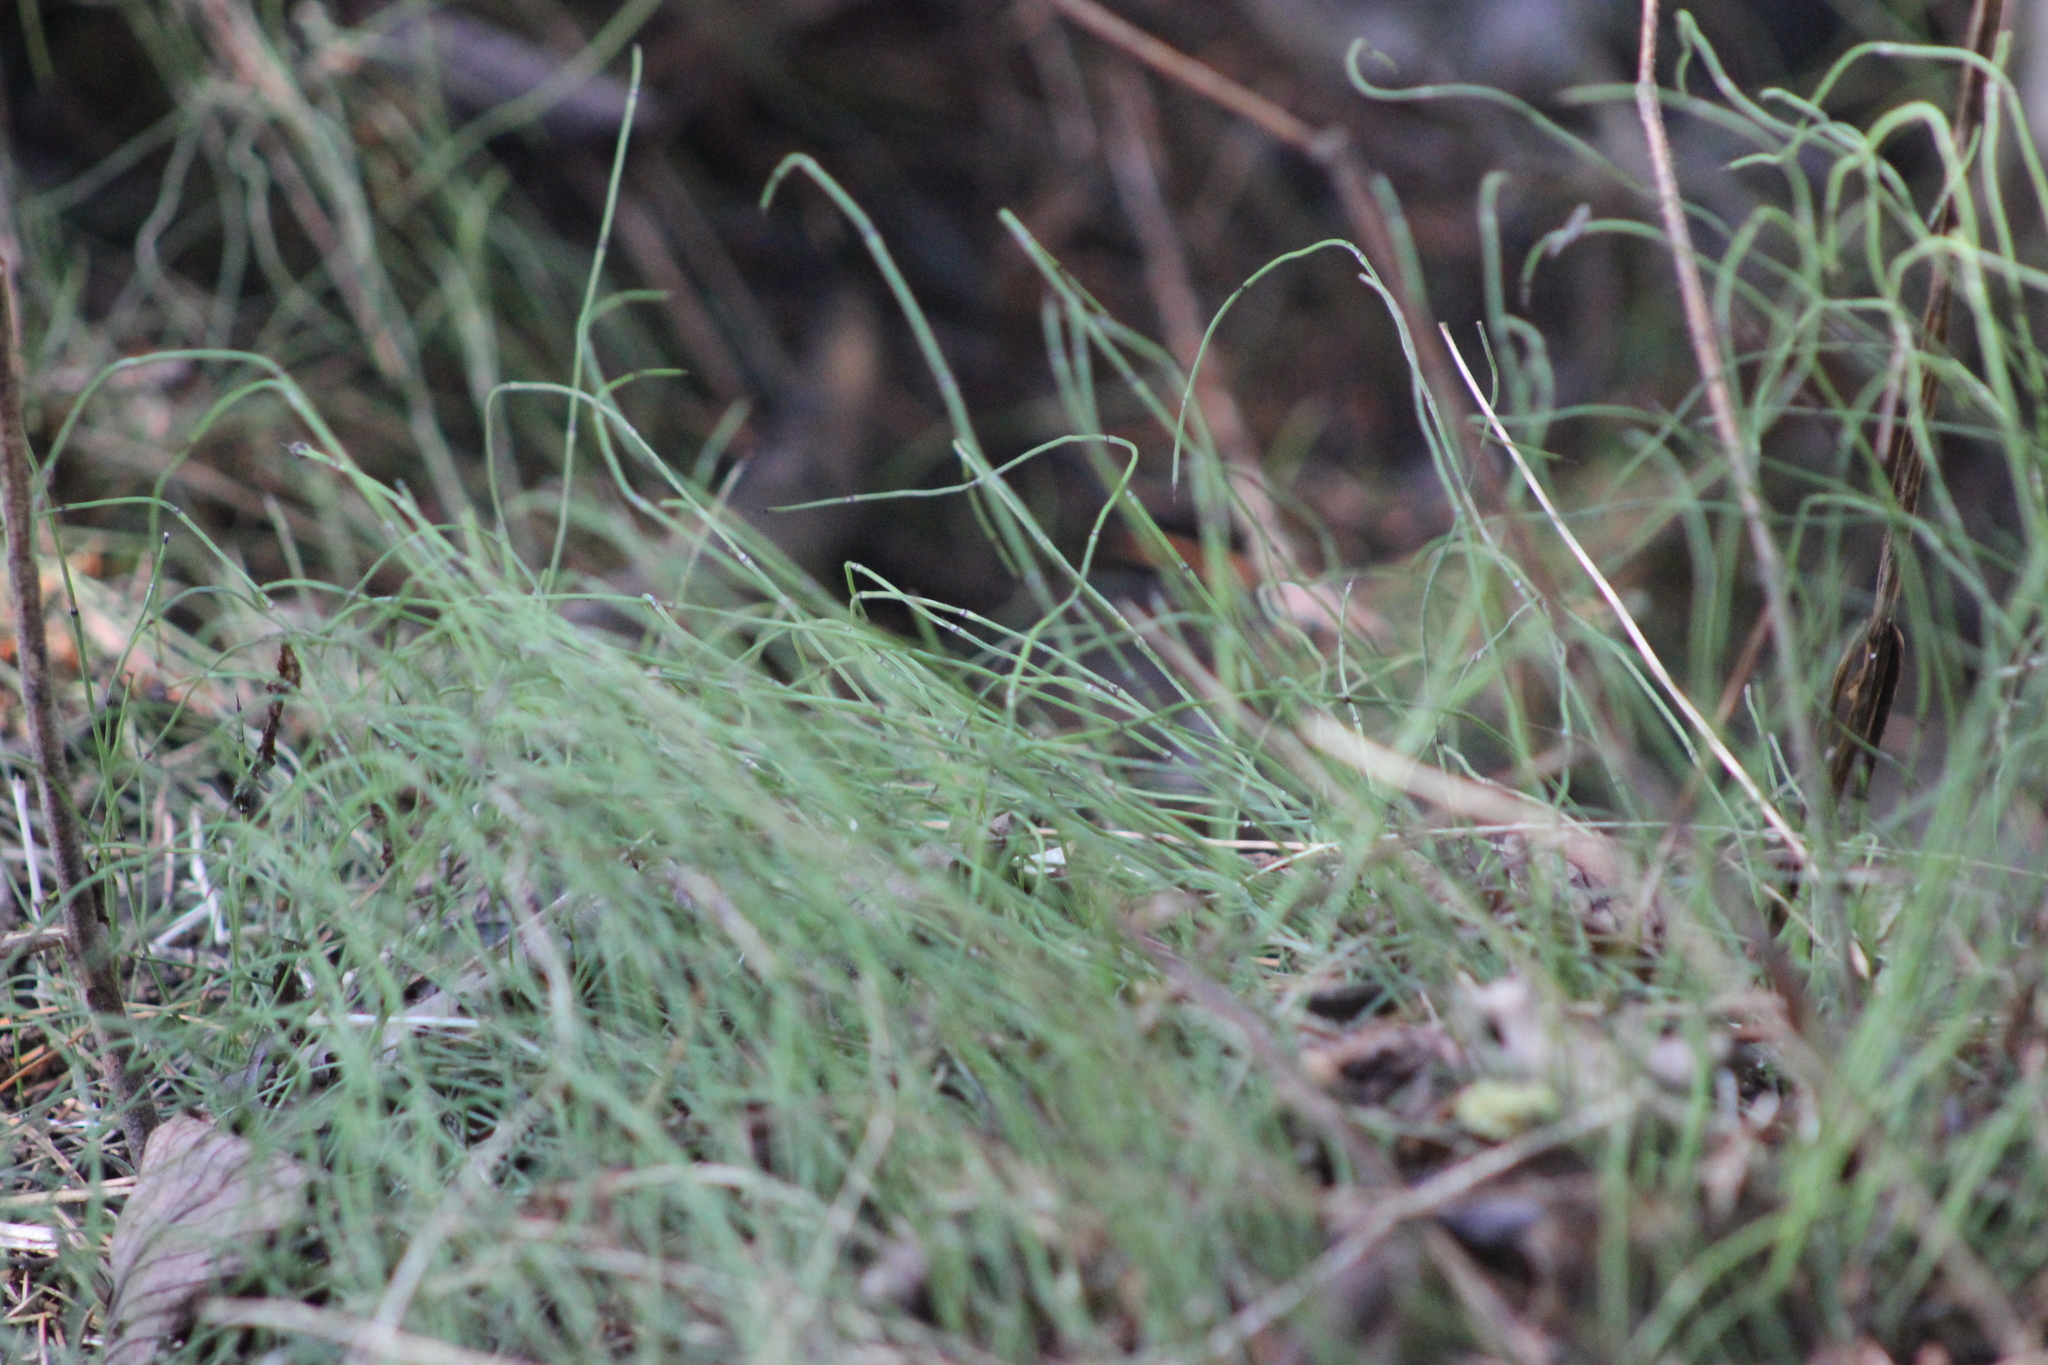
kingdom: Plantae
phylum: Tracheophyta
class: Polypodiopsida
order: Equisetales
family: Equisetaceae
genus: Equisetum
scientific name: Equisetum scirpoides
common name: Delicate horsetail
